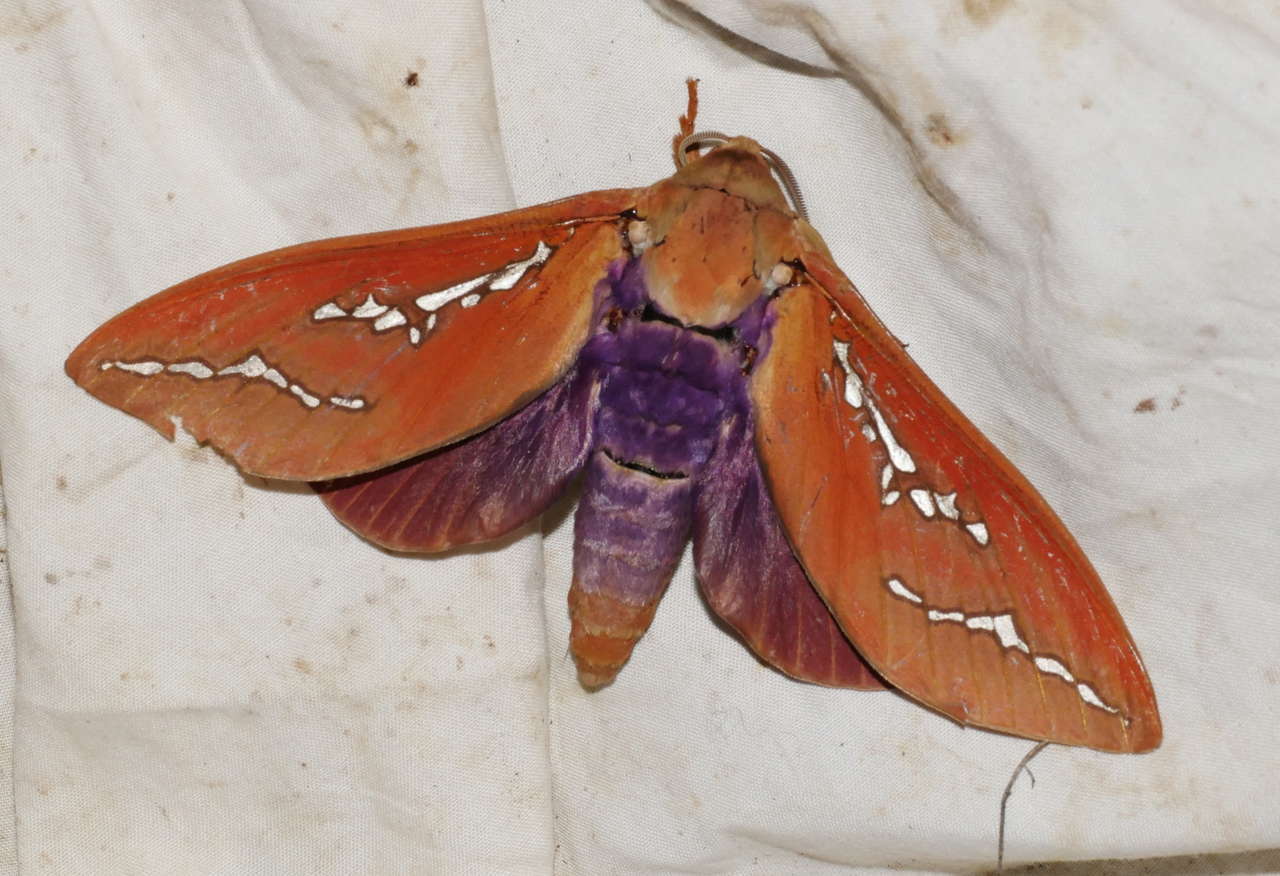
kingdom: Animalia
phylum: Arthropoda
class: Insecta
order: Lepidoptera
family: Hepialidae
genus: Abantiades
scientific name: Abantiades hyalinatus
